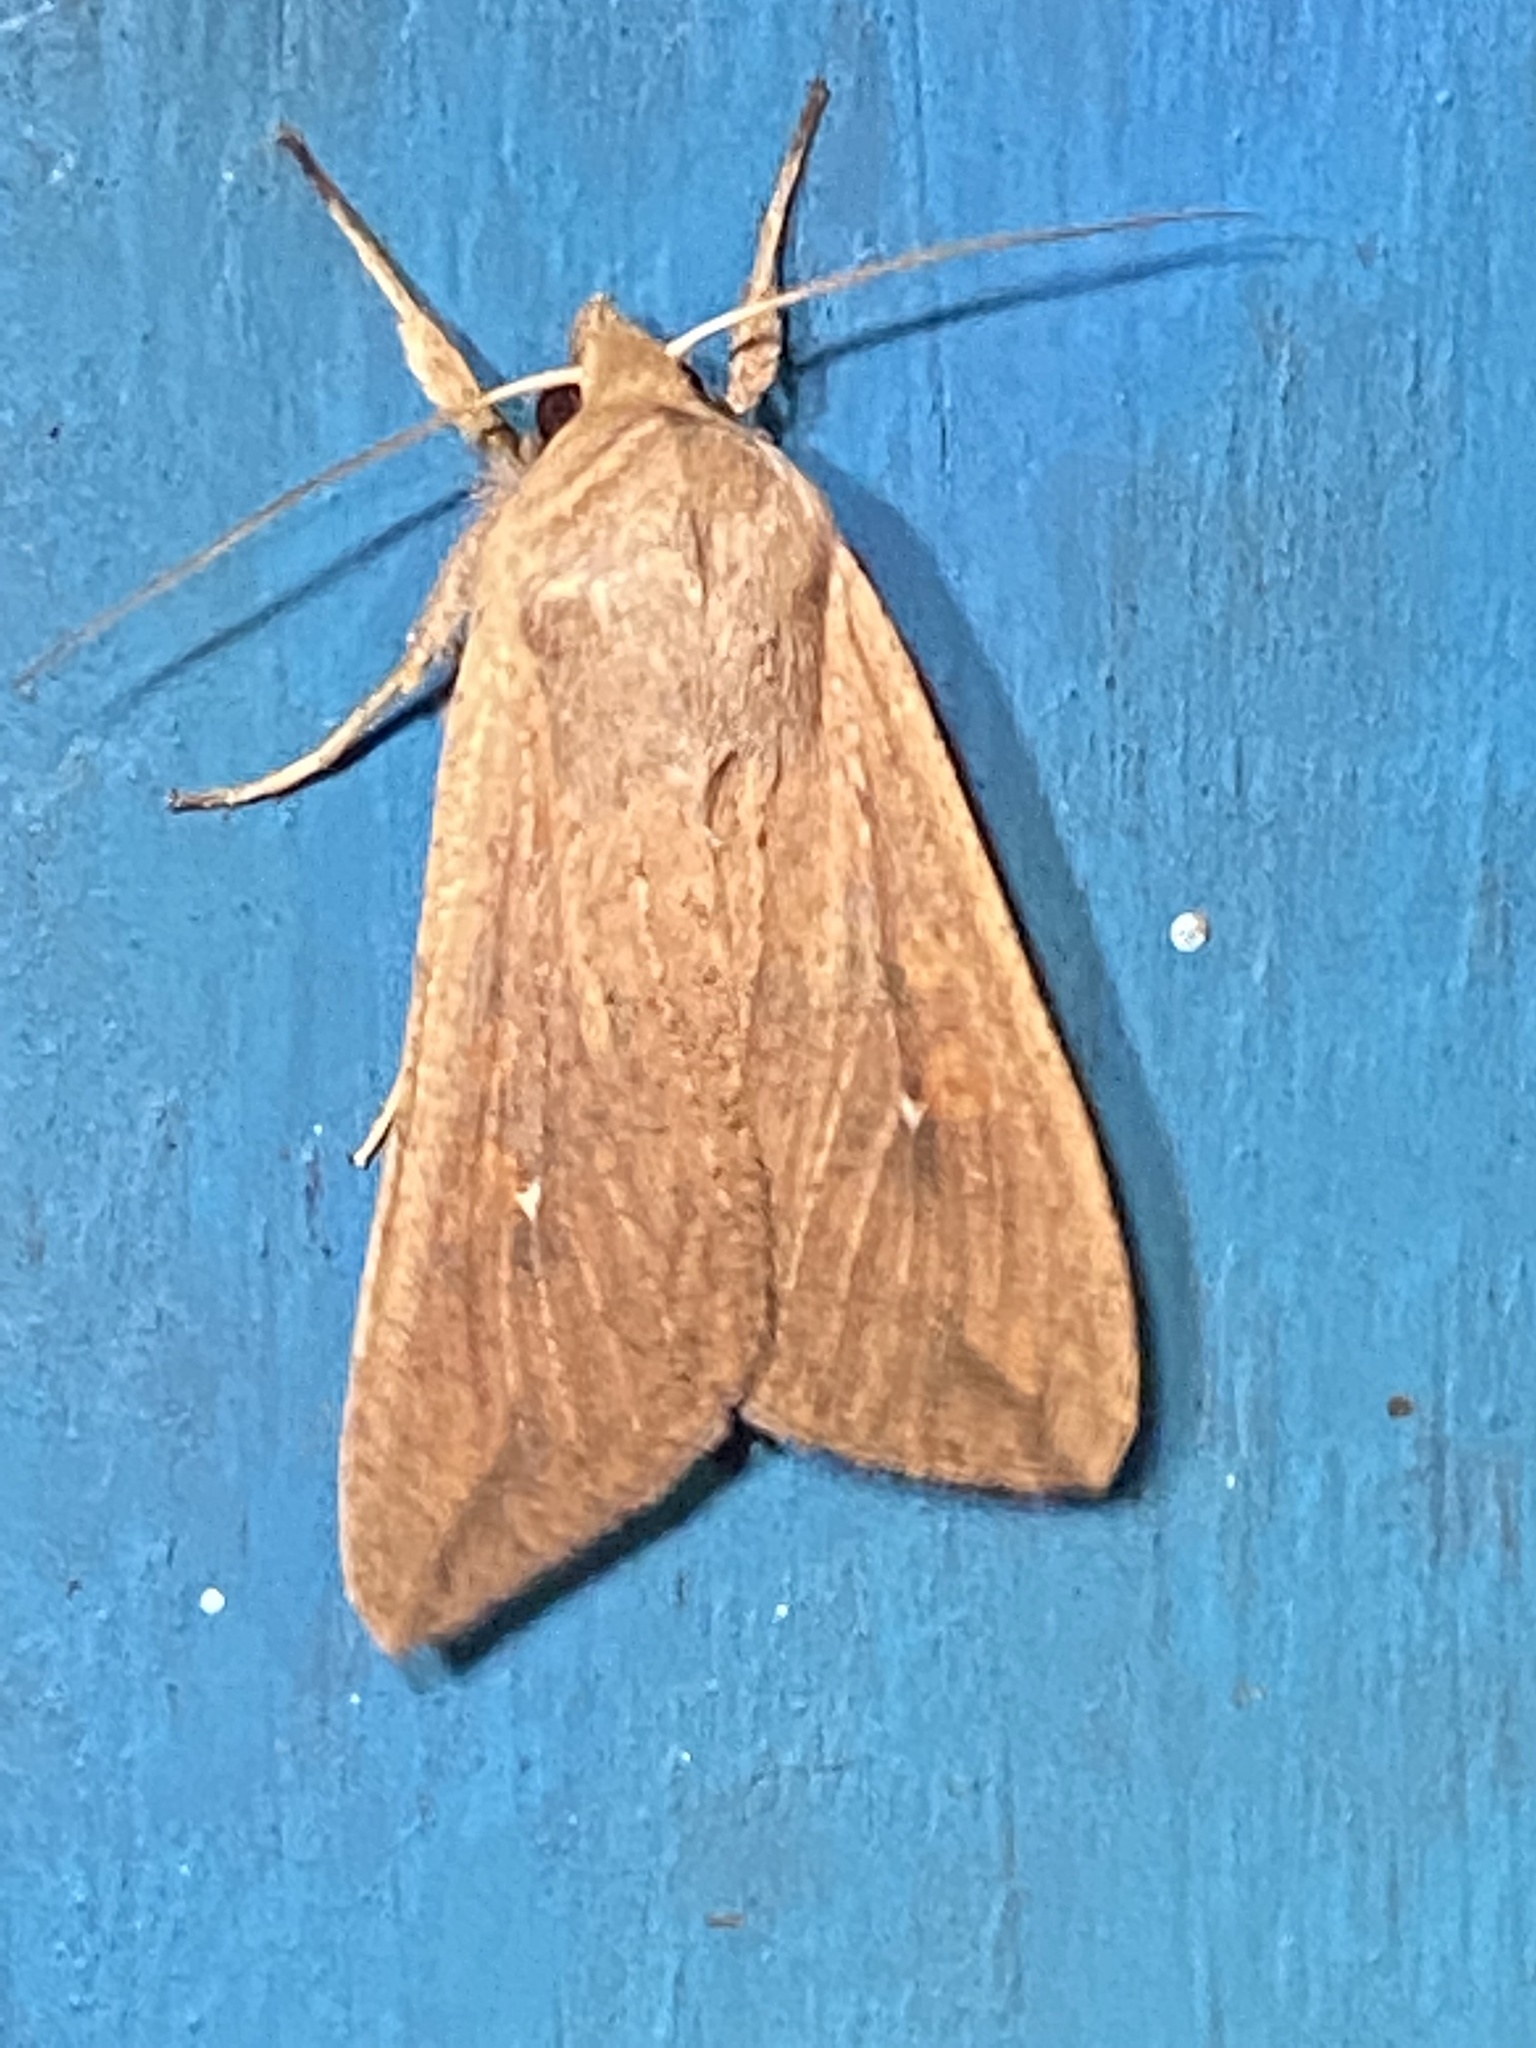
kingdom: Animalia
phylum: Arthropoda
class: Insecta
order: Lepidoptera
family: Noctuidae
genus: Mythimna
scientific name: Mythimna unipuncta
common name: White-speck
